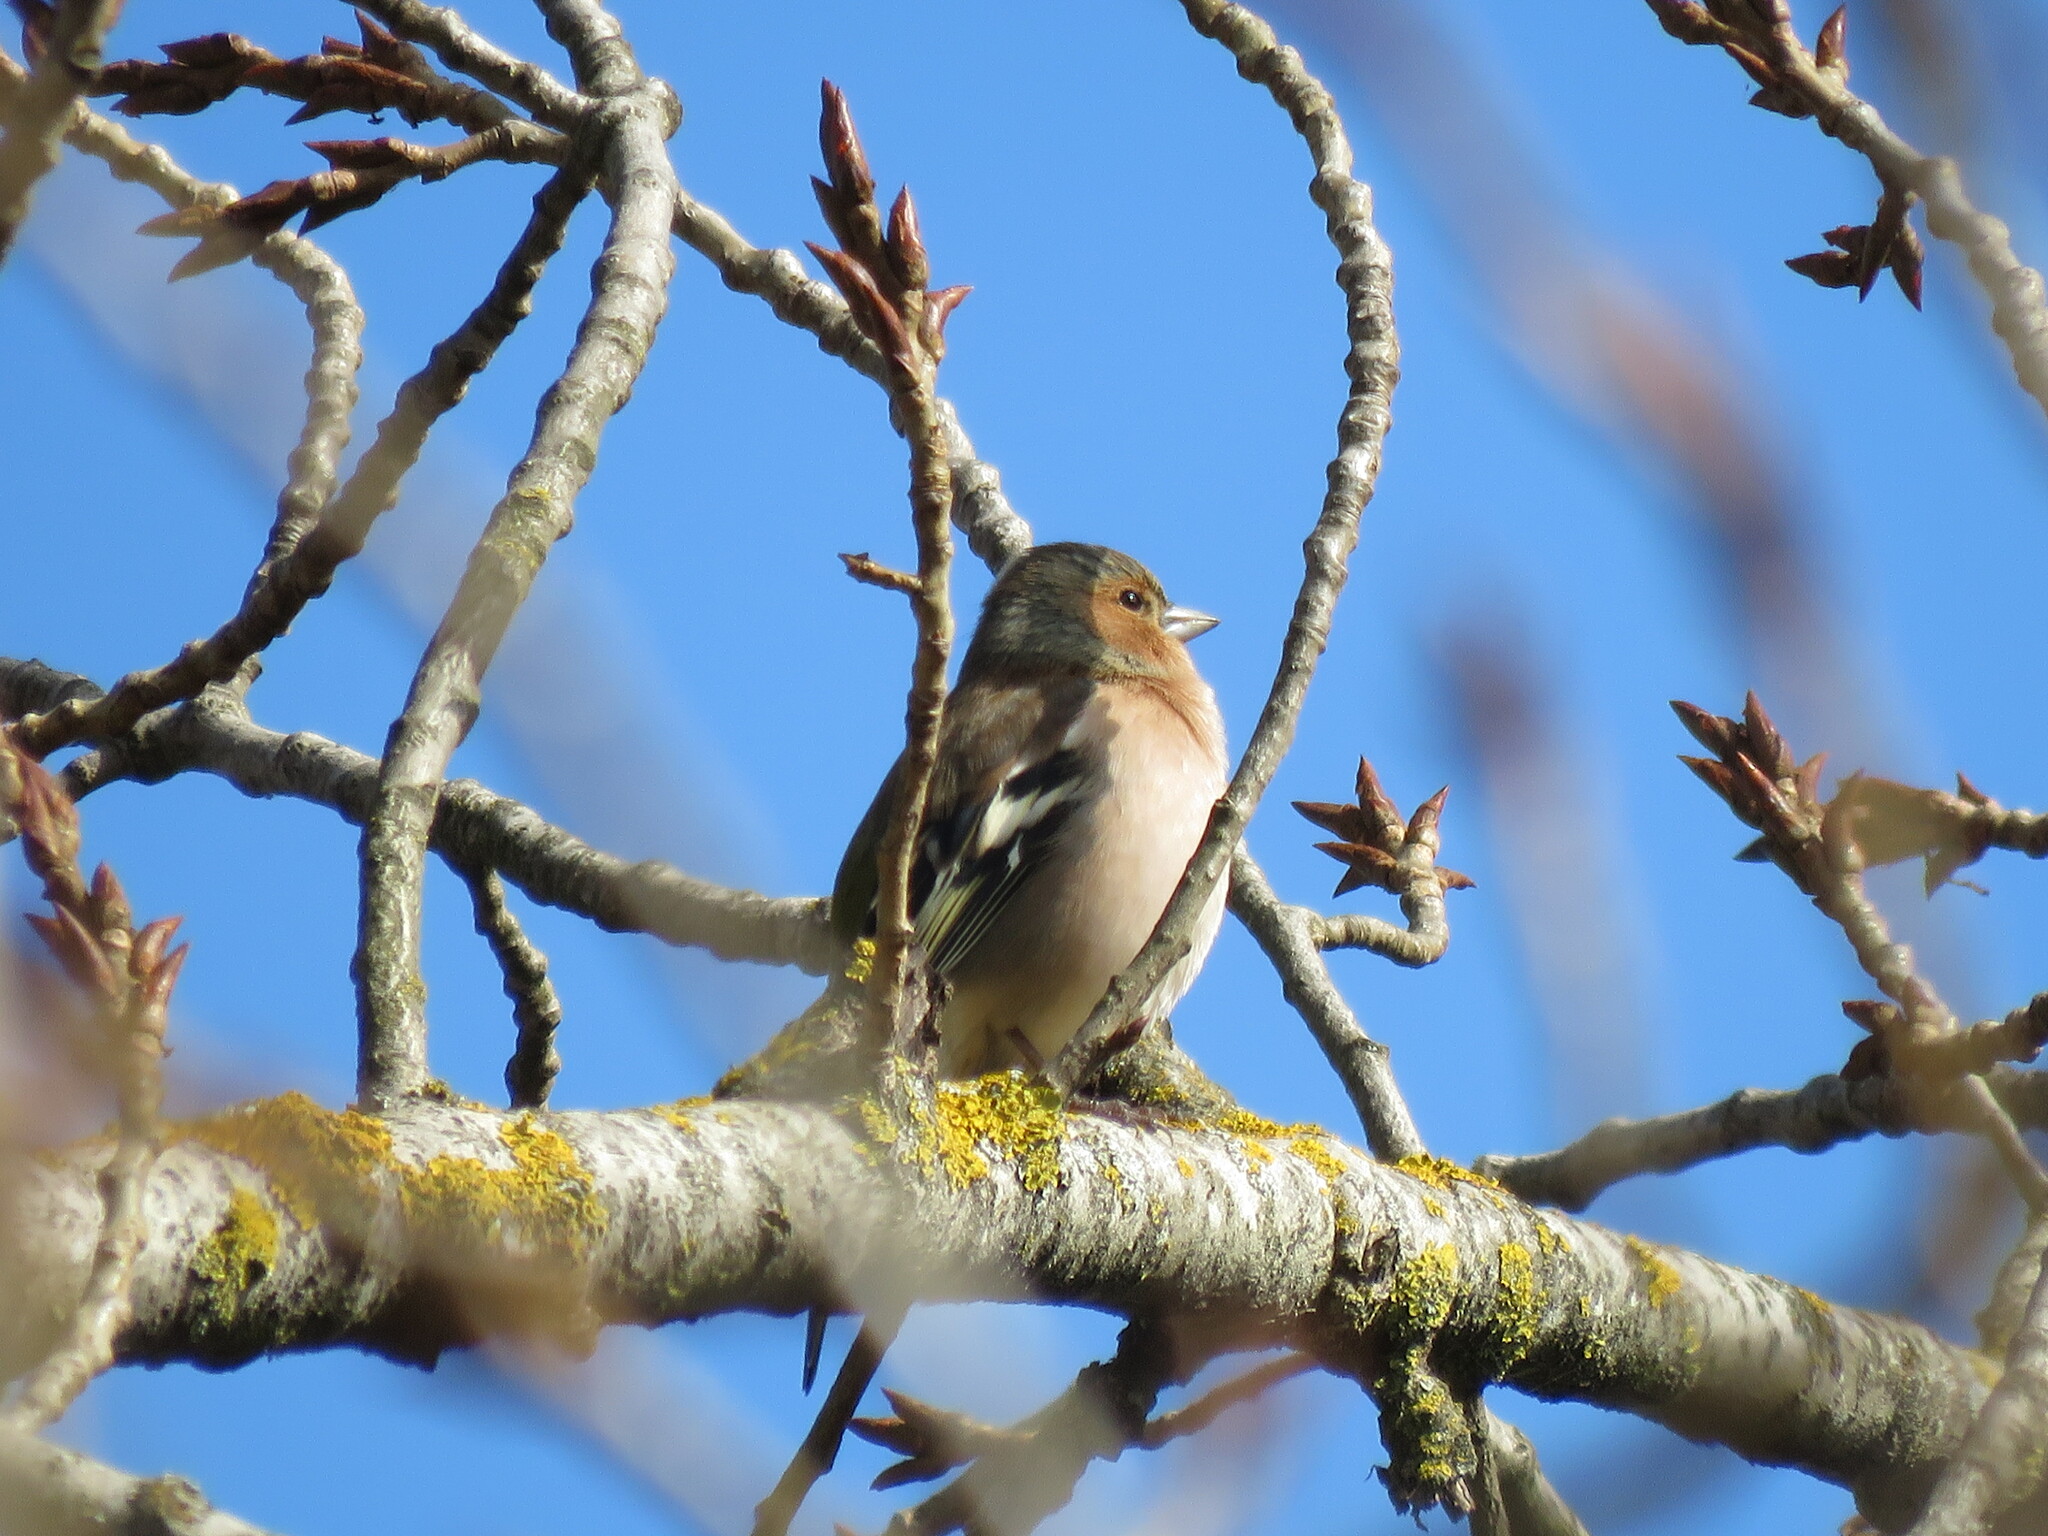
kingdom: Animalia
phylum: Chordata
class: Aves
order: Passeriformes
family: Fringillidae
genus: Fringilla
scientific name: Fringilla coelebs
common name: Common chaffinch
